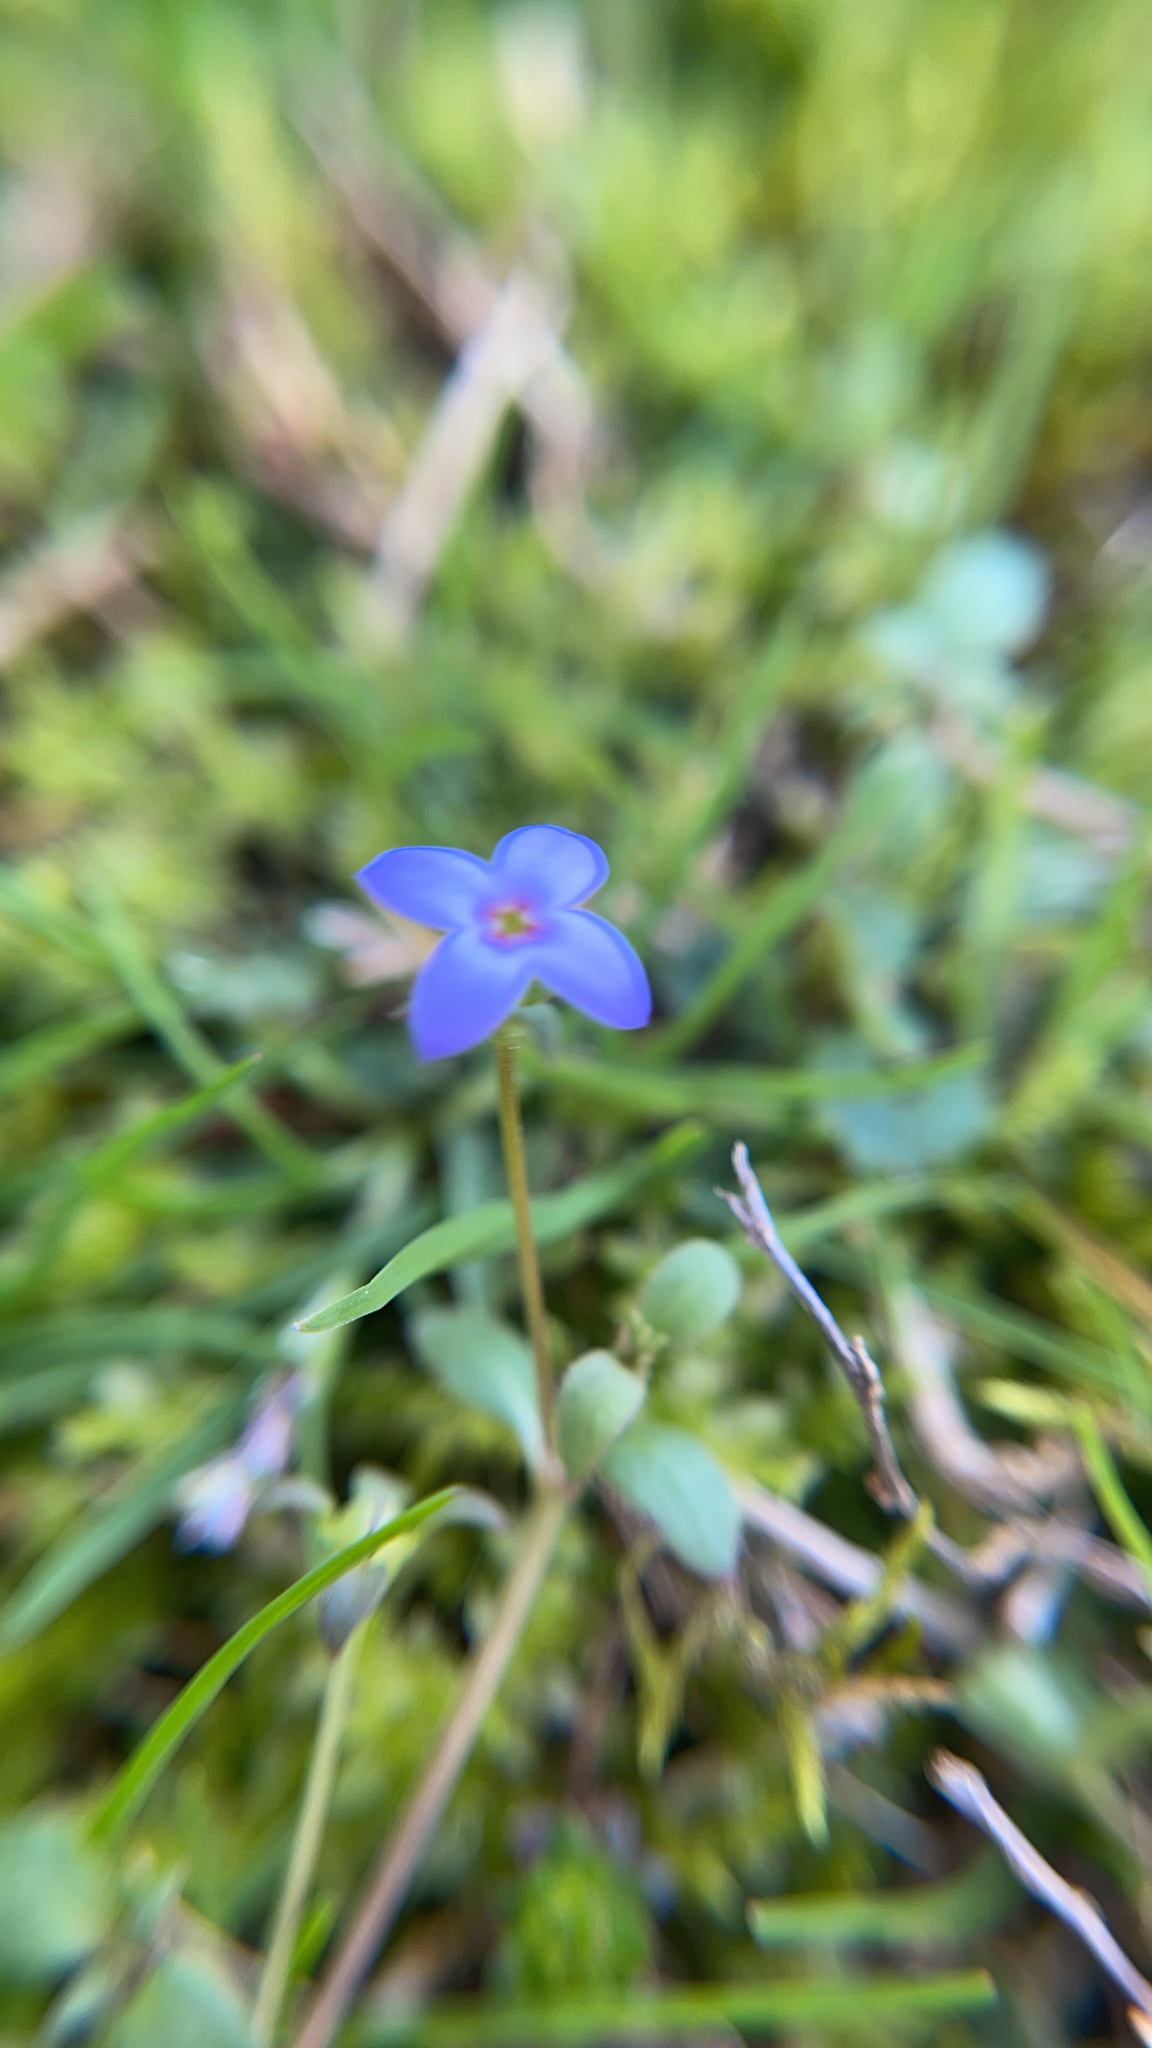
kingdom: Plantae
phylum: Tracheophyta
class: Magnoliopsida
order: Gentianales
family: Rubiaceae
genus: Houstonia
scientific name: Houstonia pusilla
